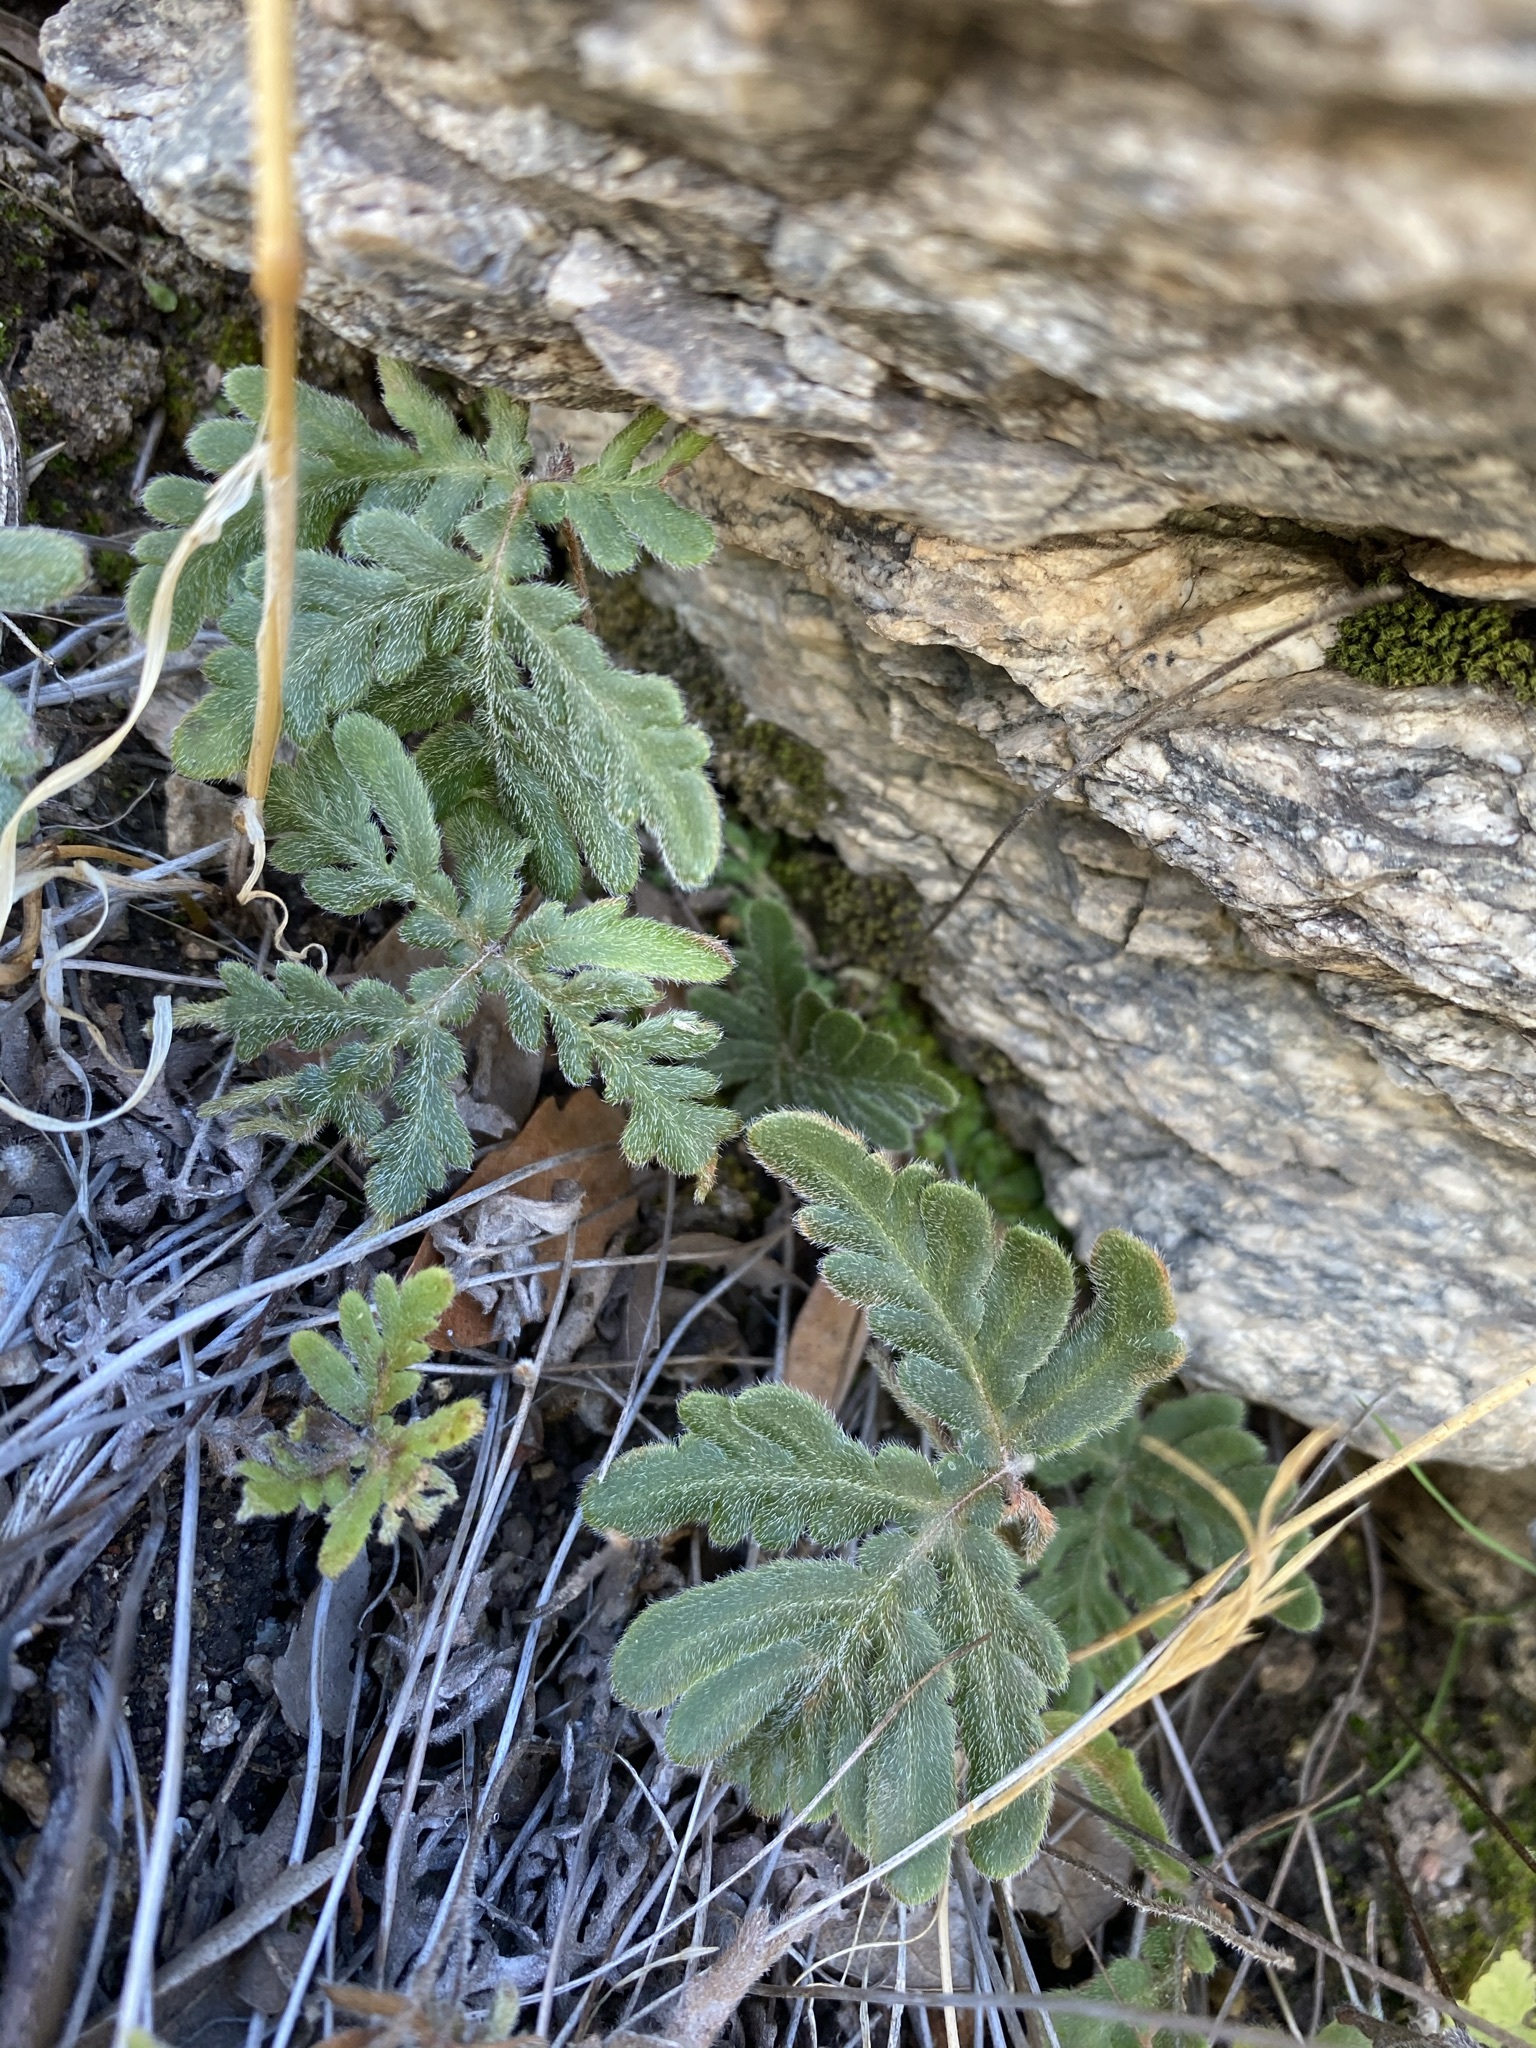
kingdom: Plantae
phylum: Tracheophyta
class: Polypodiopsida
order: Polypodiales
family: Pteridaceae
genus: Bommeria
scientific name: Bommeria hispida
